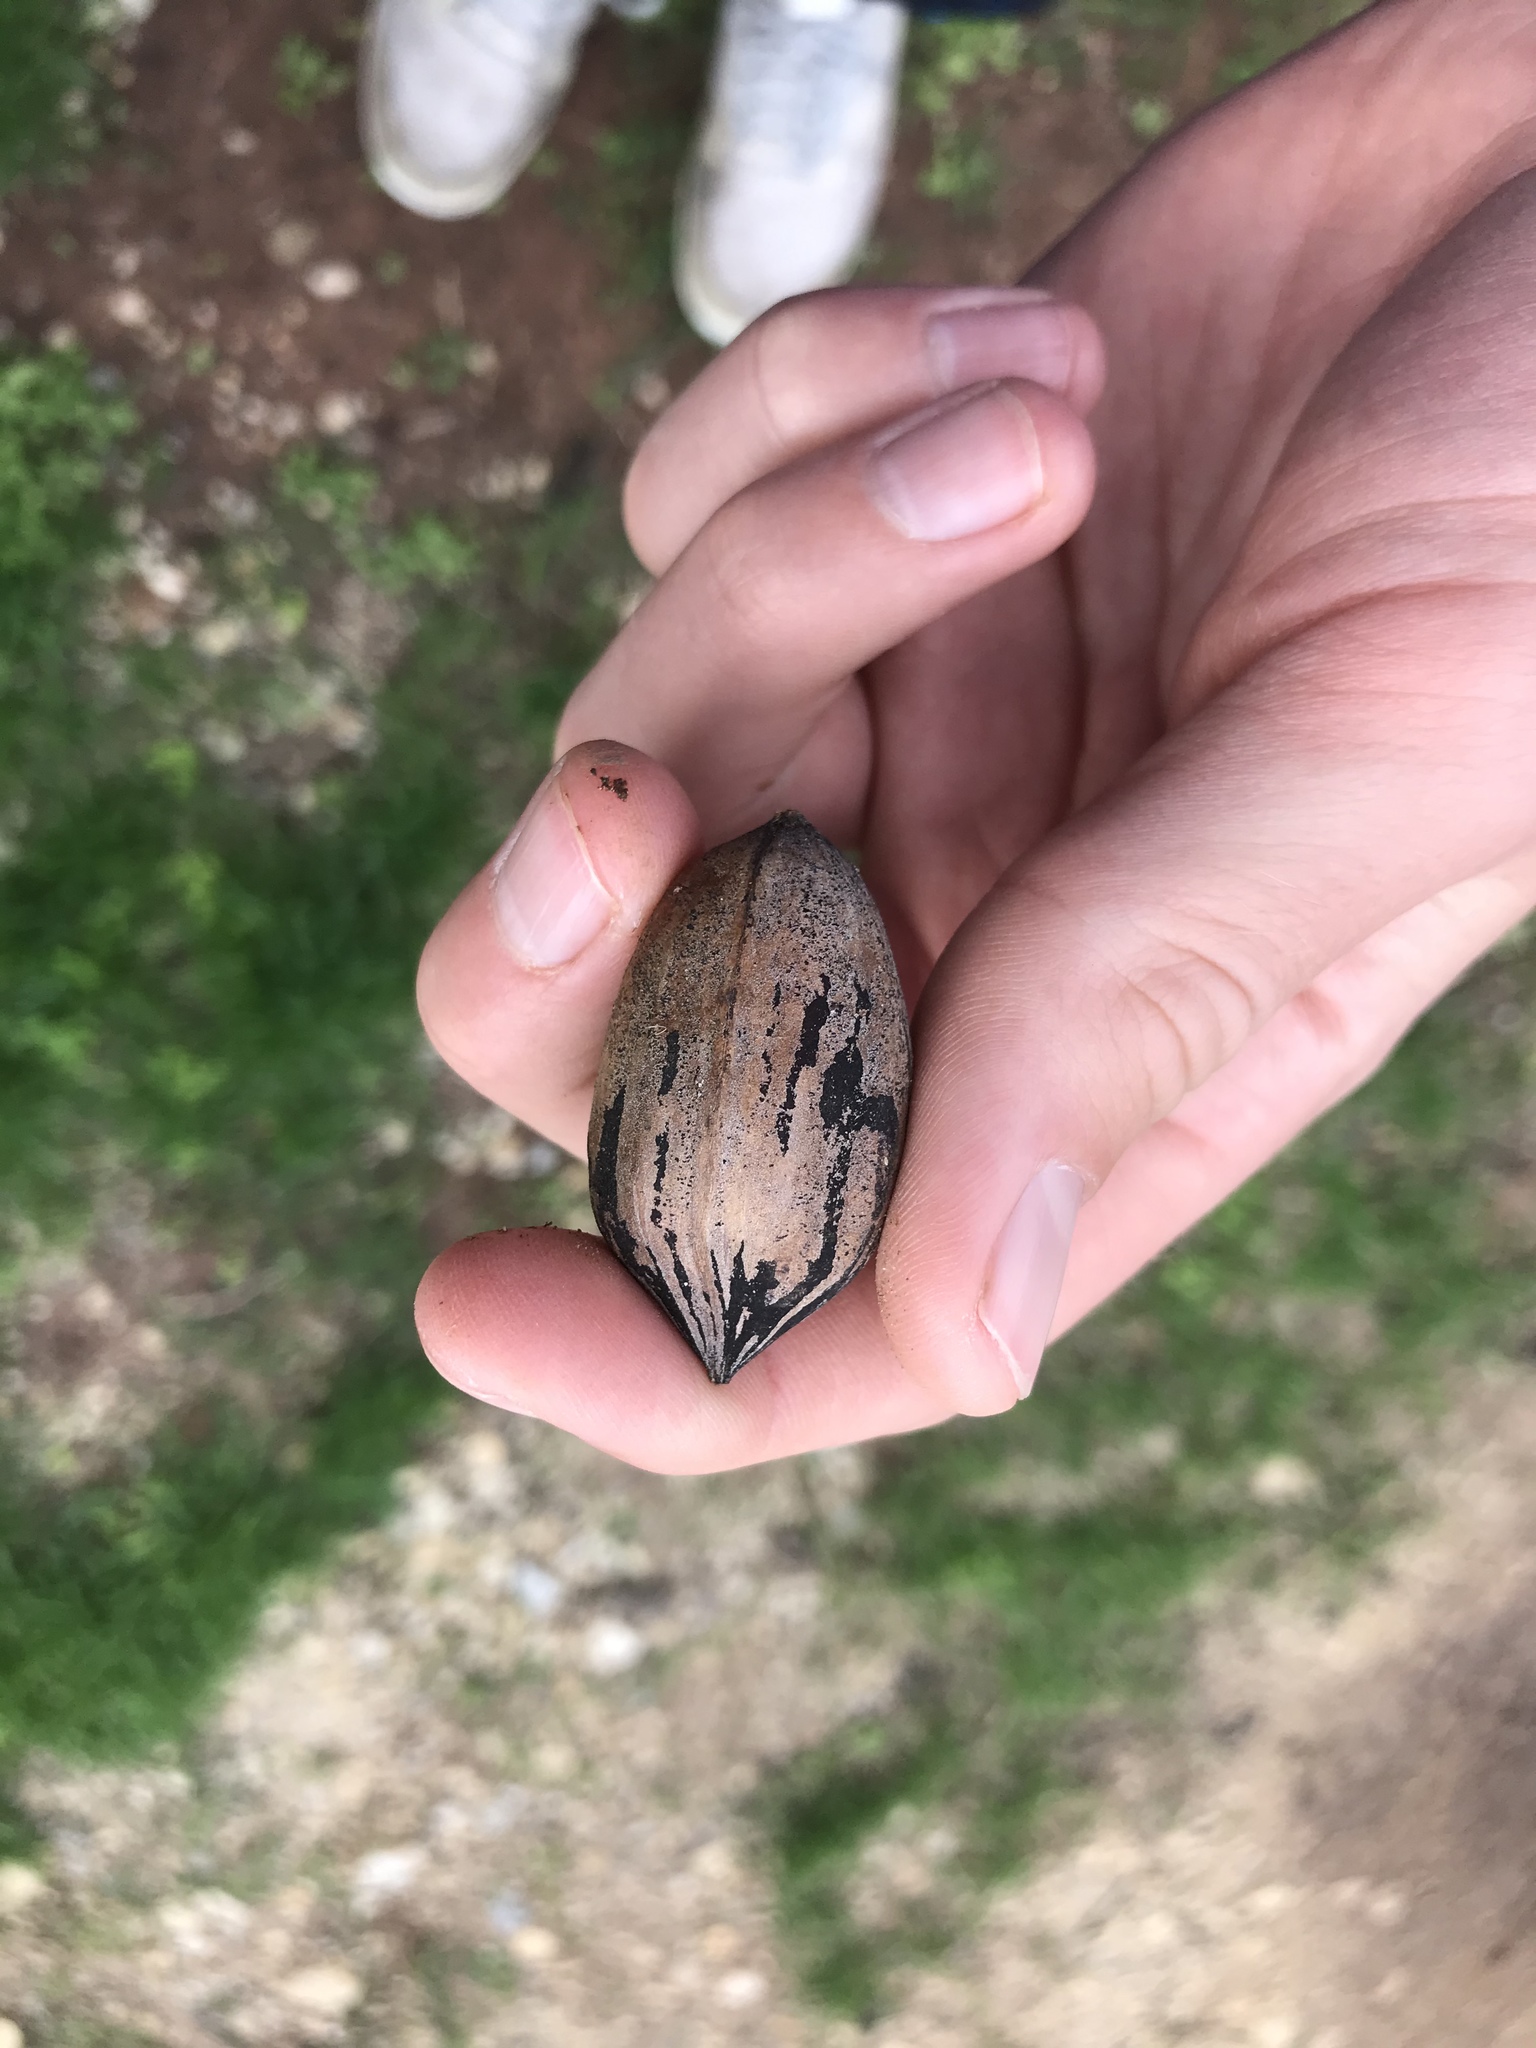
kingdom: Plantae
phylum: Tracheophyta
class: Magnoliopsida
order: Fagales
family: Juglandaceae
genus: Carya
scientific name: Carya illinoinensis
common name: Pecan
